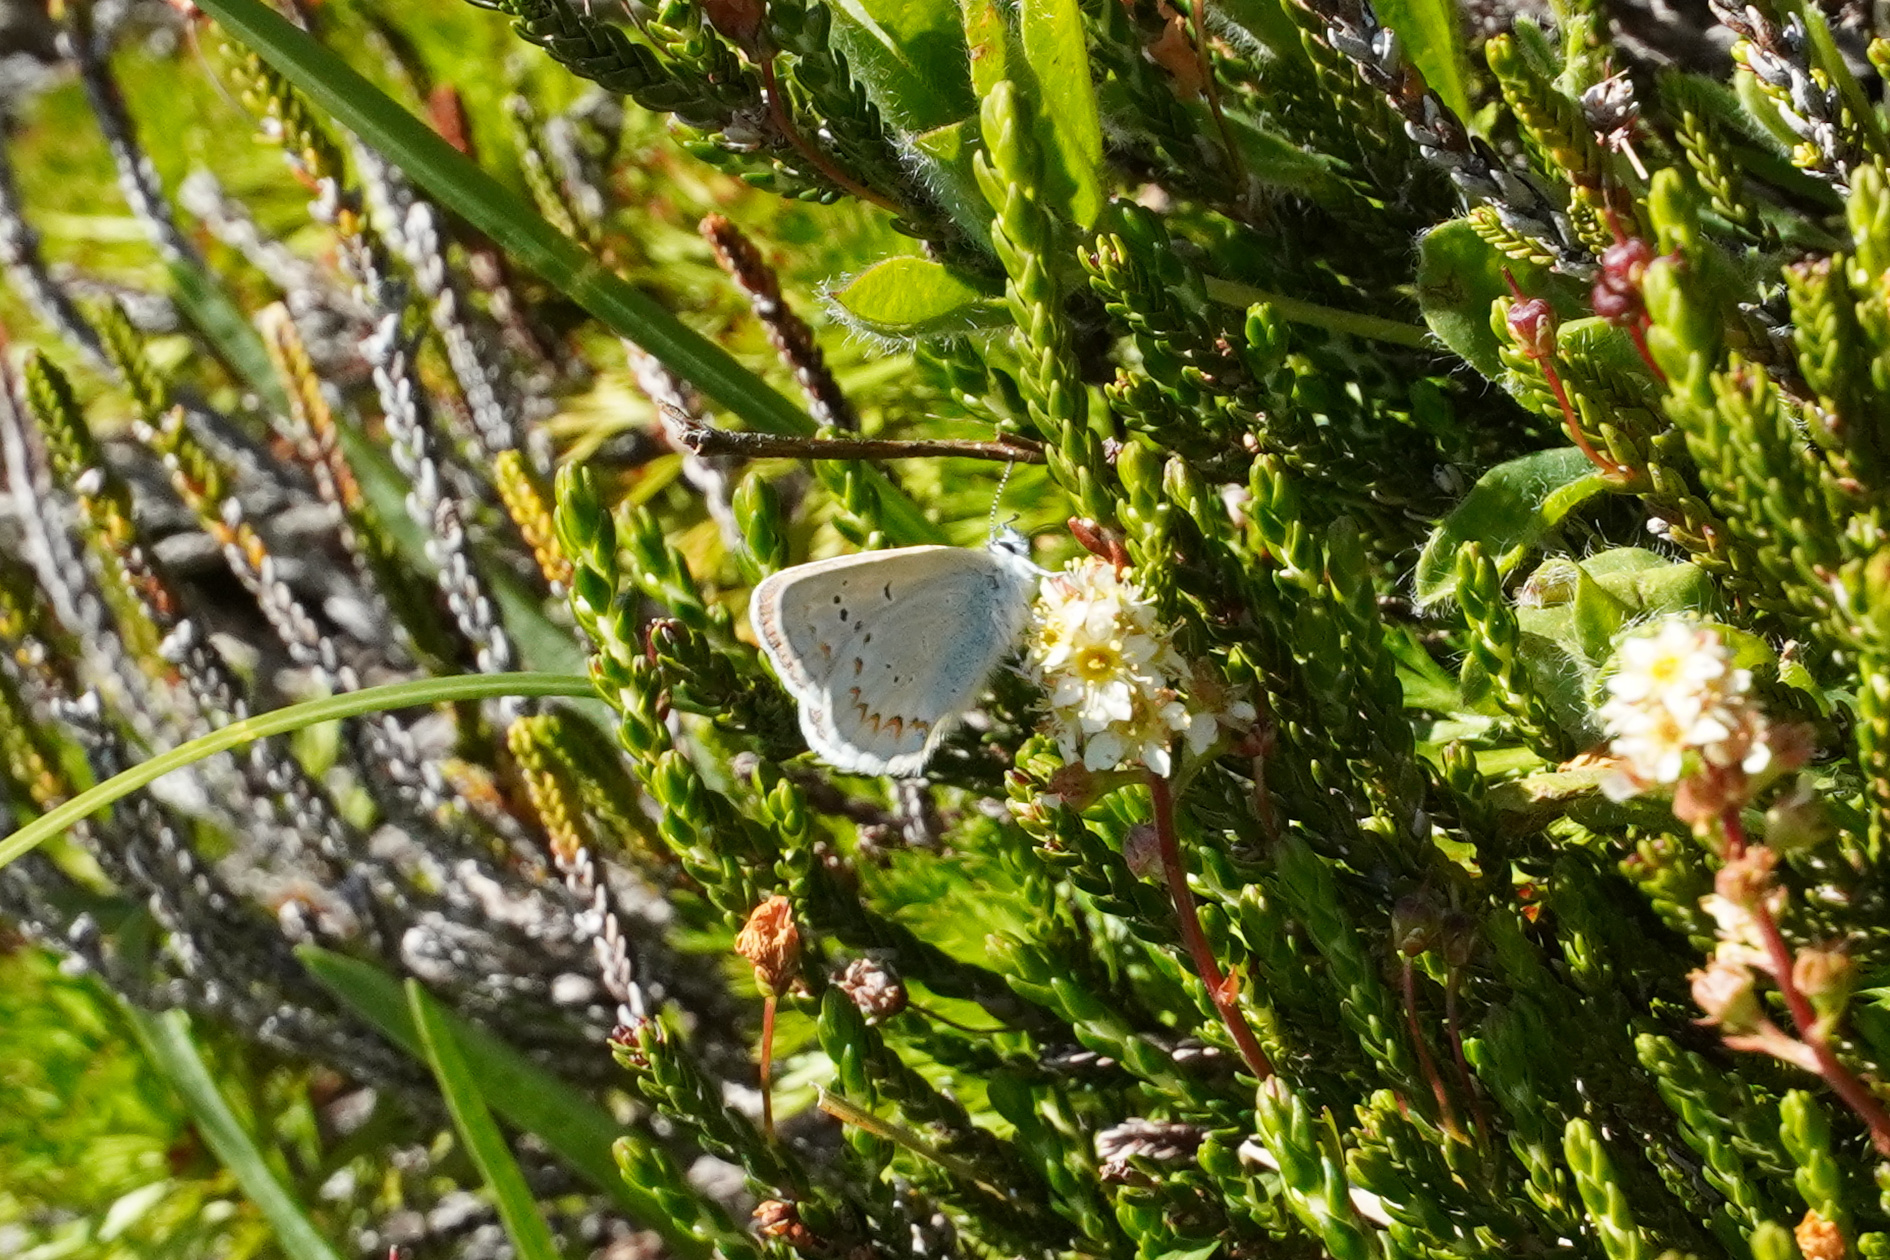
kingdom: Animalia
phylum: Arthropoda
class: Insecta
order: Lepidoptera
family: Lycaenidae
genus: Lycaeides
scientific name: Lycaeides anna
